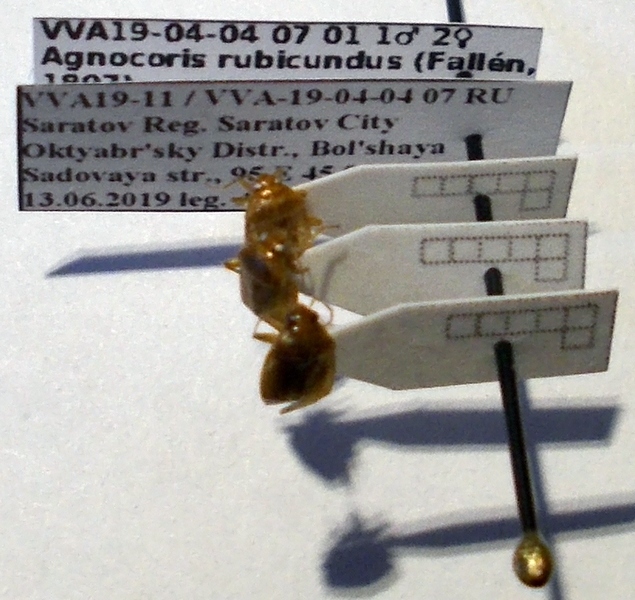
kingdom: Animalia
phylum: Arthropoda
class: Insecta
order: Hemiptera
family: Miridae
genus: Agnocoris
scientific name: Agnocoris rubicundus
